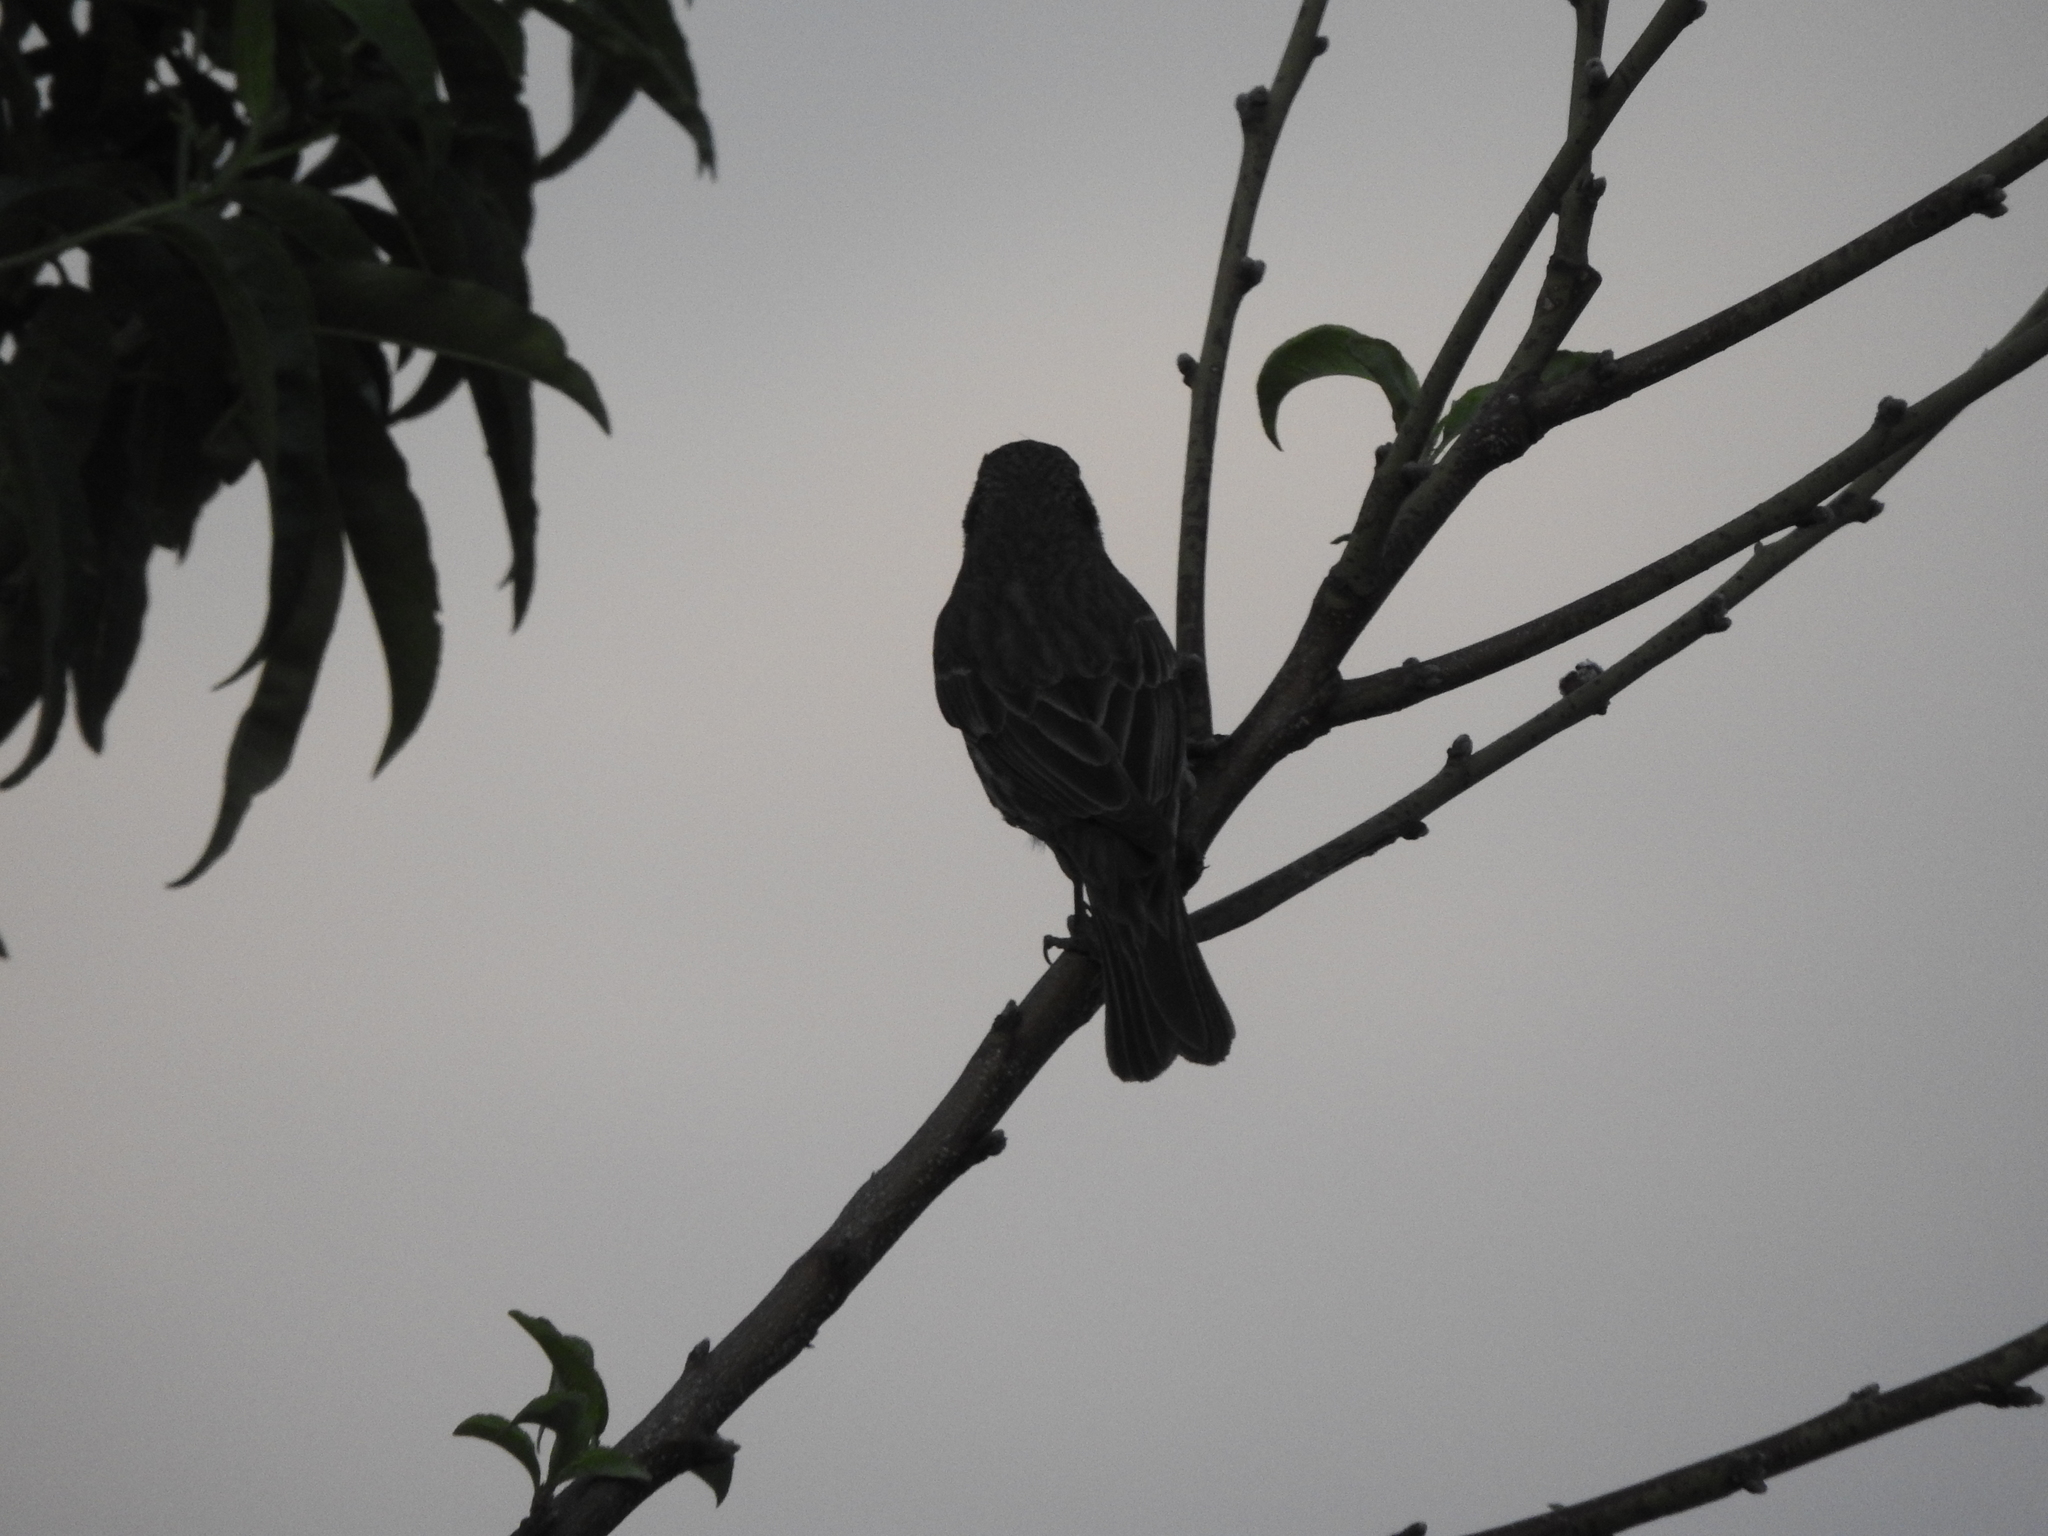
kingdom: Animalia
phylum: Chordata
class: Aves
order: Passeriformes
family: Fringillidae
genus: Haemorhous
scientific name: Haemorhous mexicanus
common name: House finch
